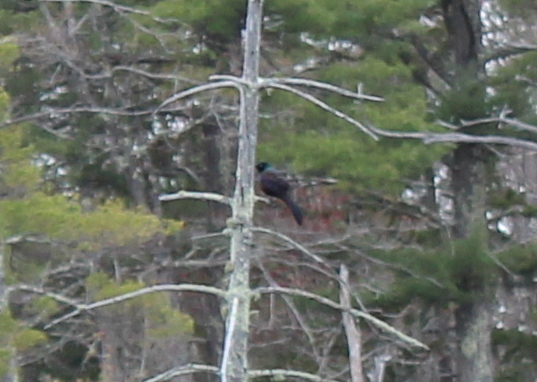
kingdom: Animalia
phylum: Chordata
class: Aves
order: Passeriformes
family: Icteridae
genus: Quiscalus
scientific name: Quiscalus quiscula
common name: Common grackle
